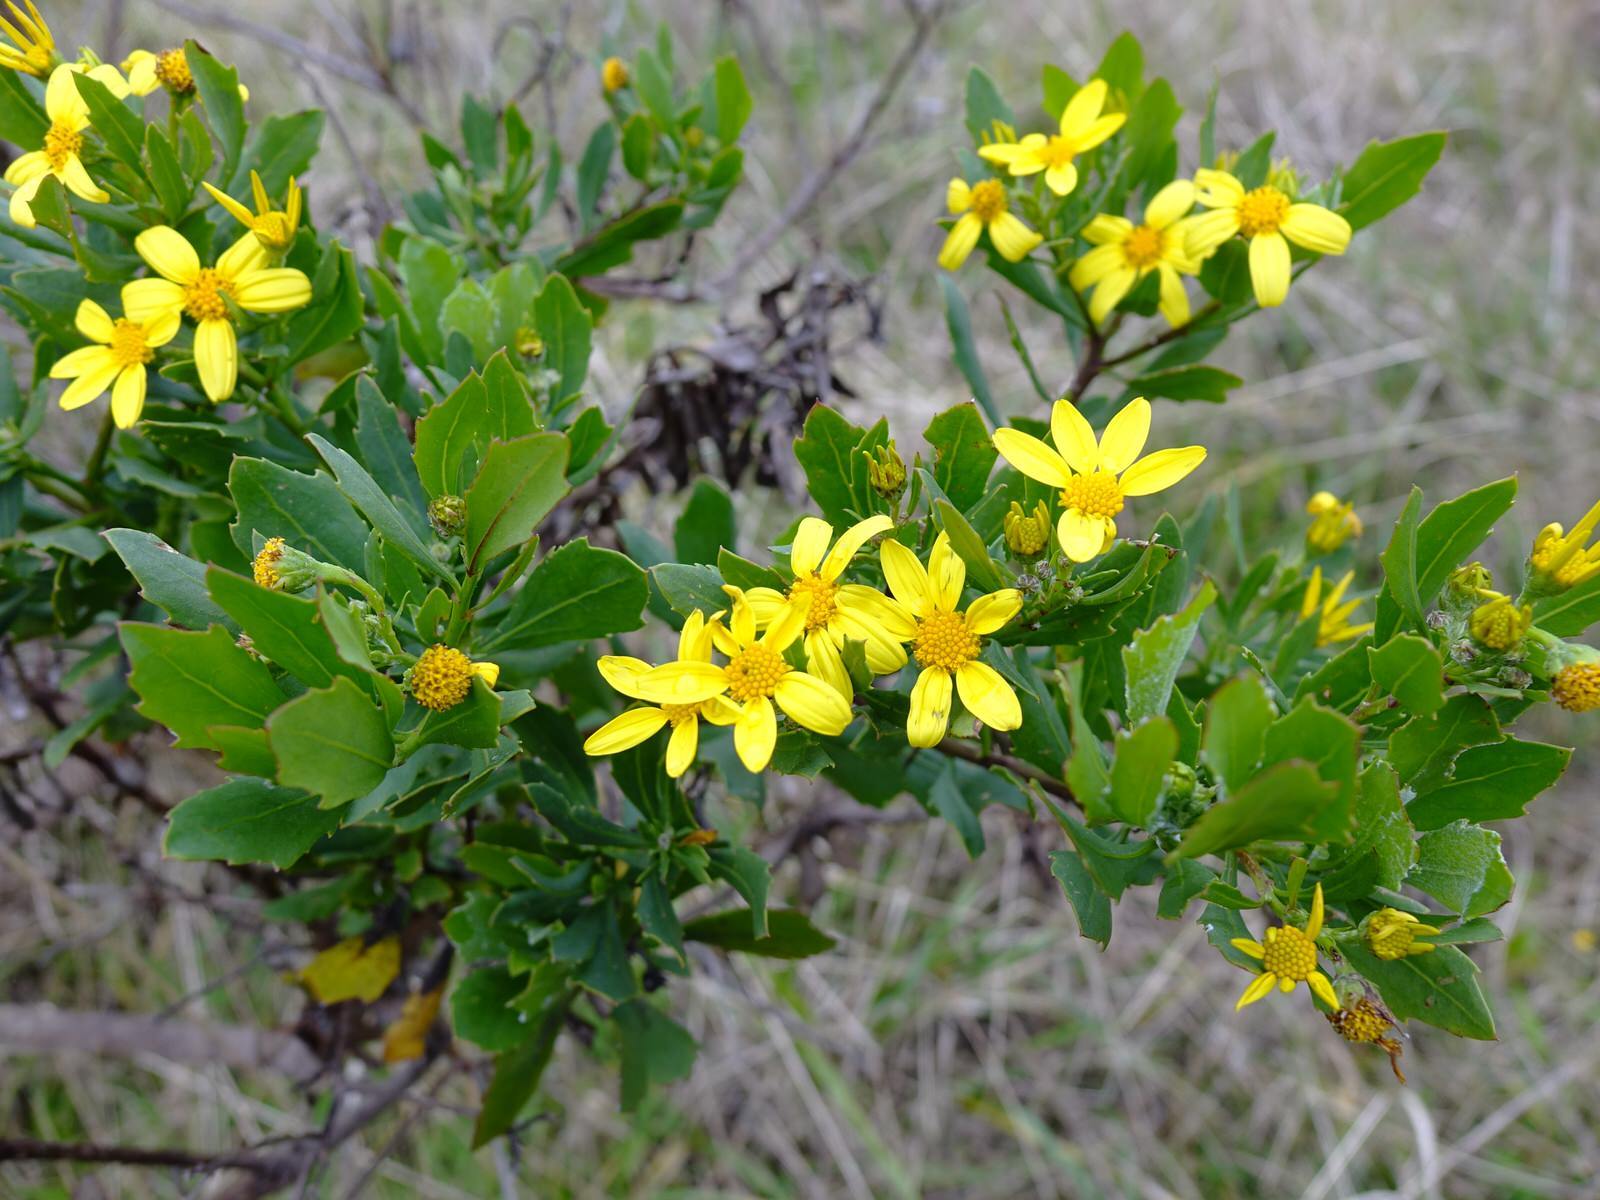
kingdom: Plantae
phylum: Tracheophyta
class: Magnoliopsida
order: Asterales
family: Asteraceae
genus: Osteospermum
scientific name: Osteospermum moniliferum
